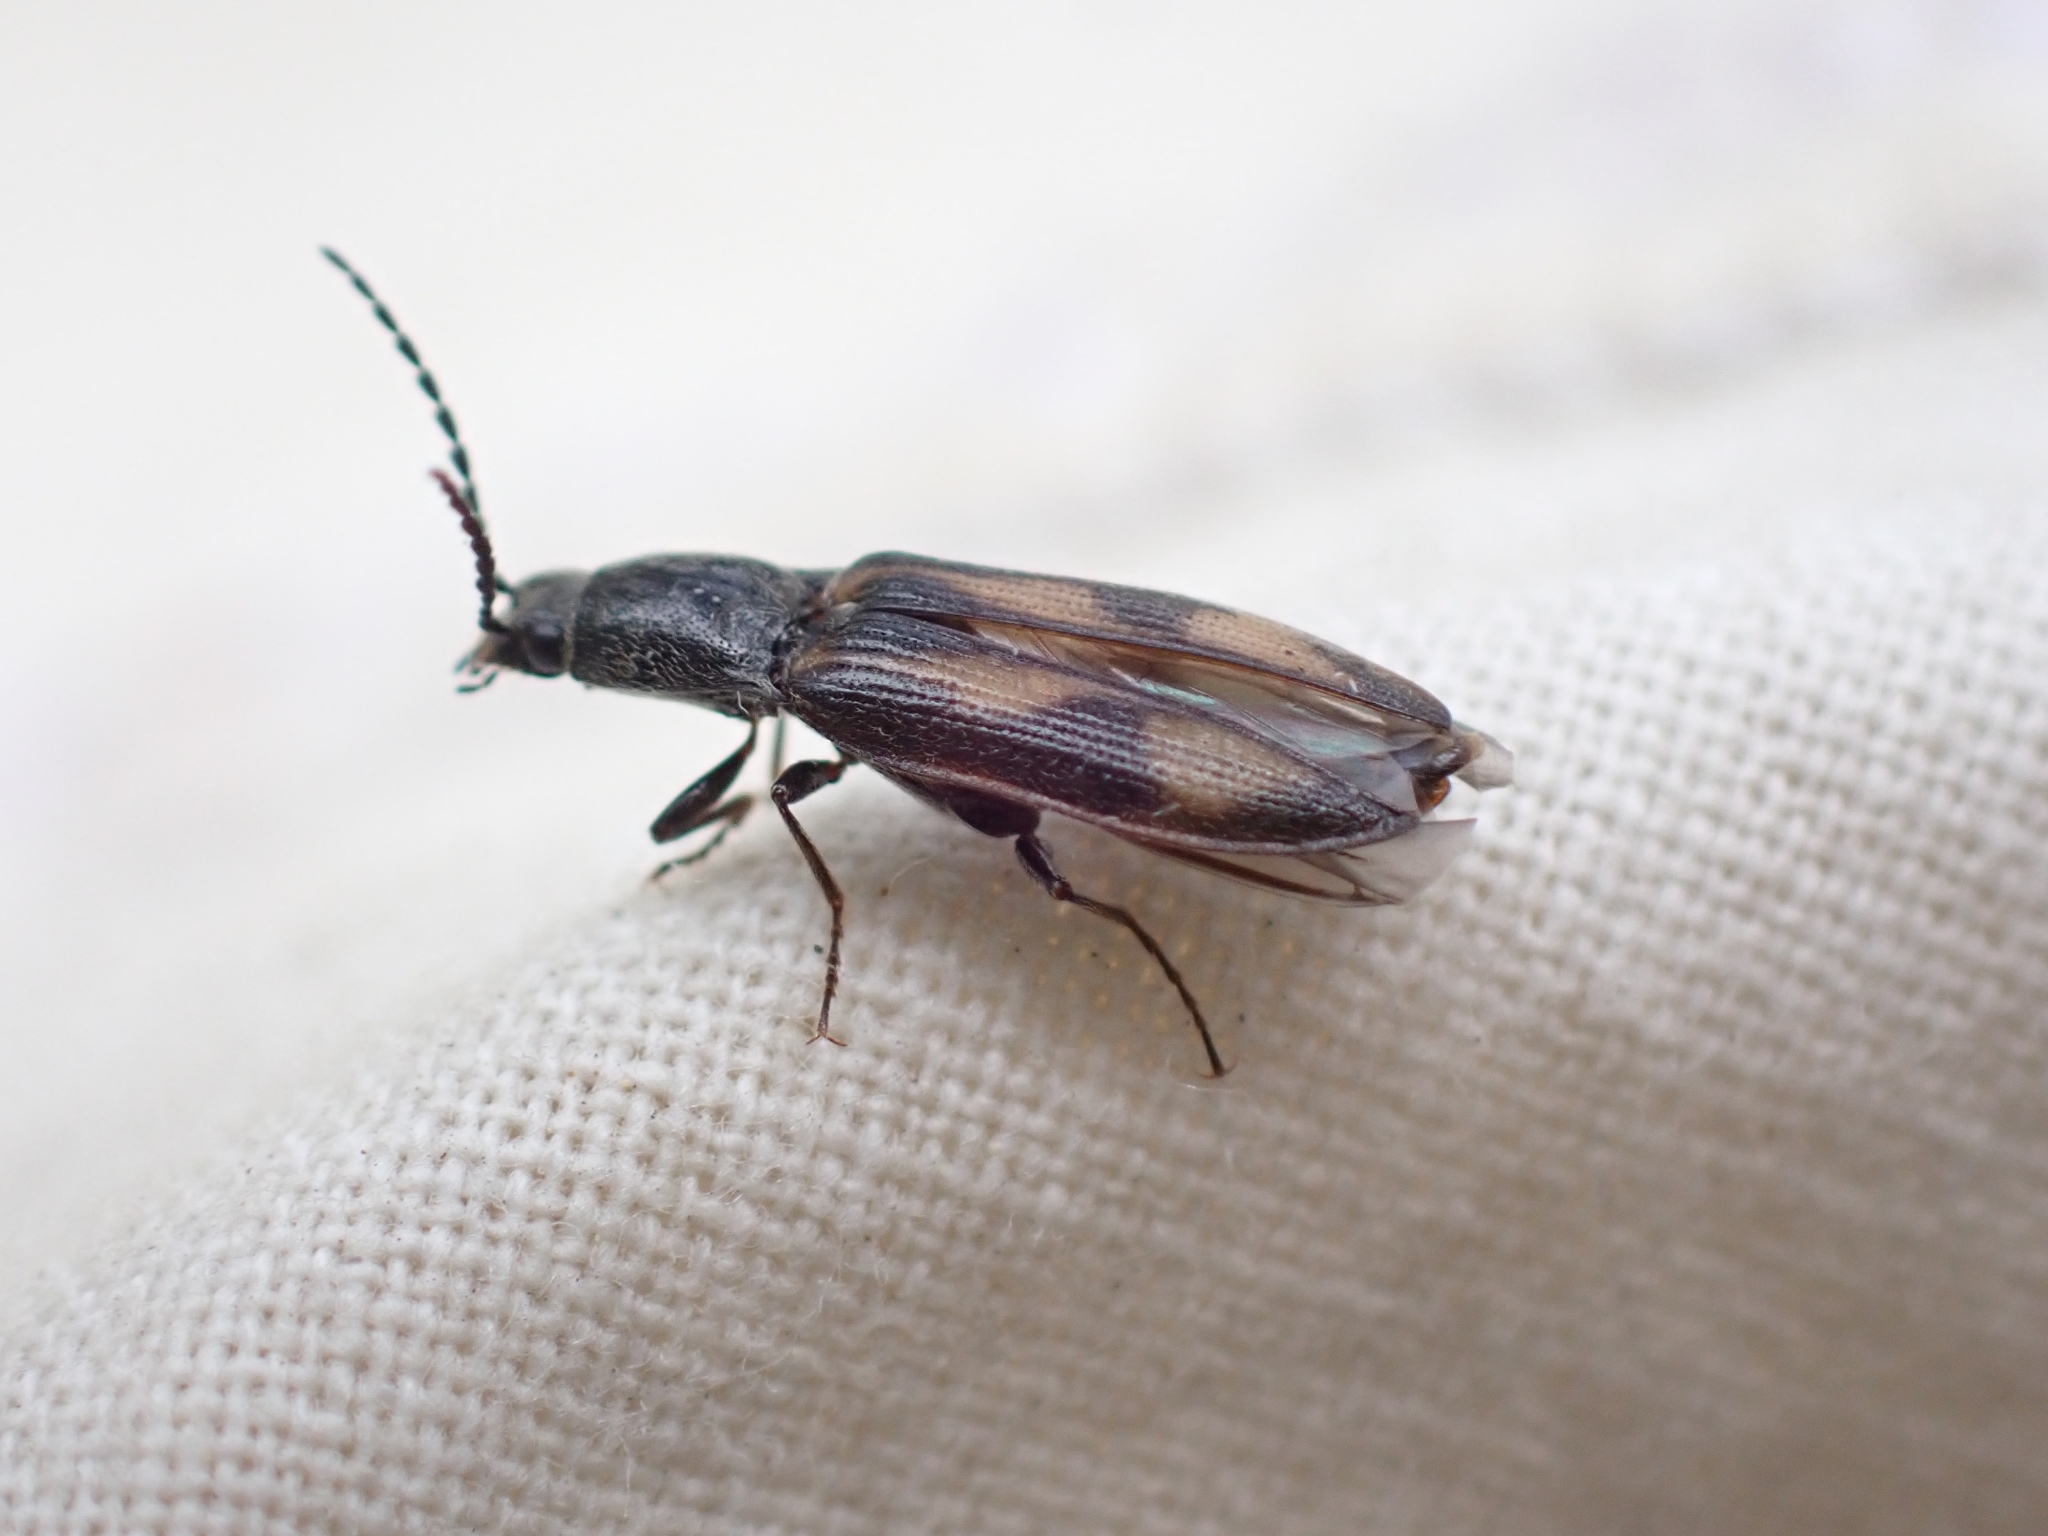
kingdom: Animalia
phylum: Arthropoda
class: Insecta
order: Coleoptera
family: Elateridae
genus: Liotrichus
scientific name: Liotrichus umbripennis
